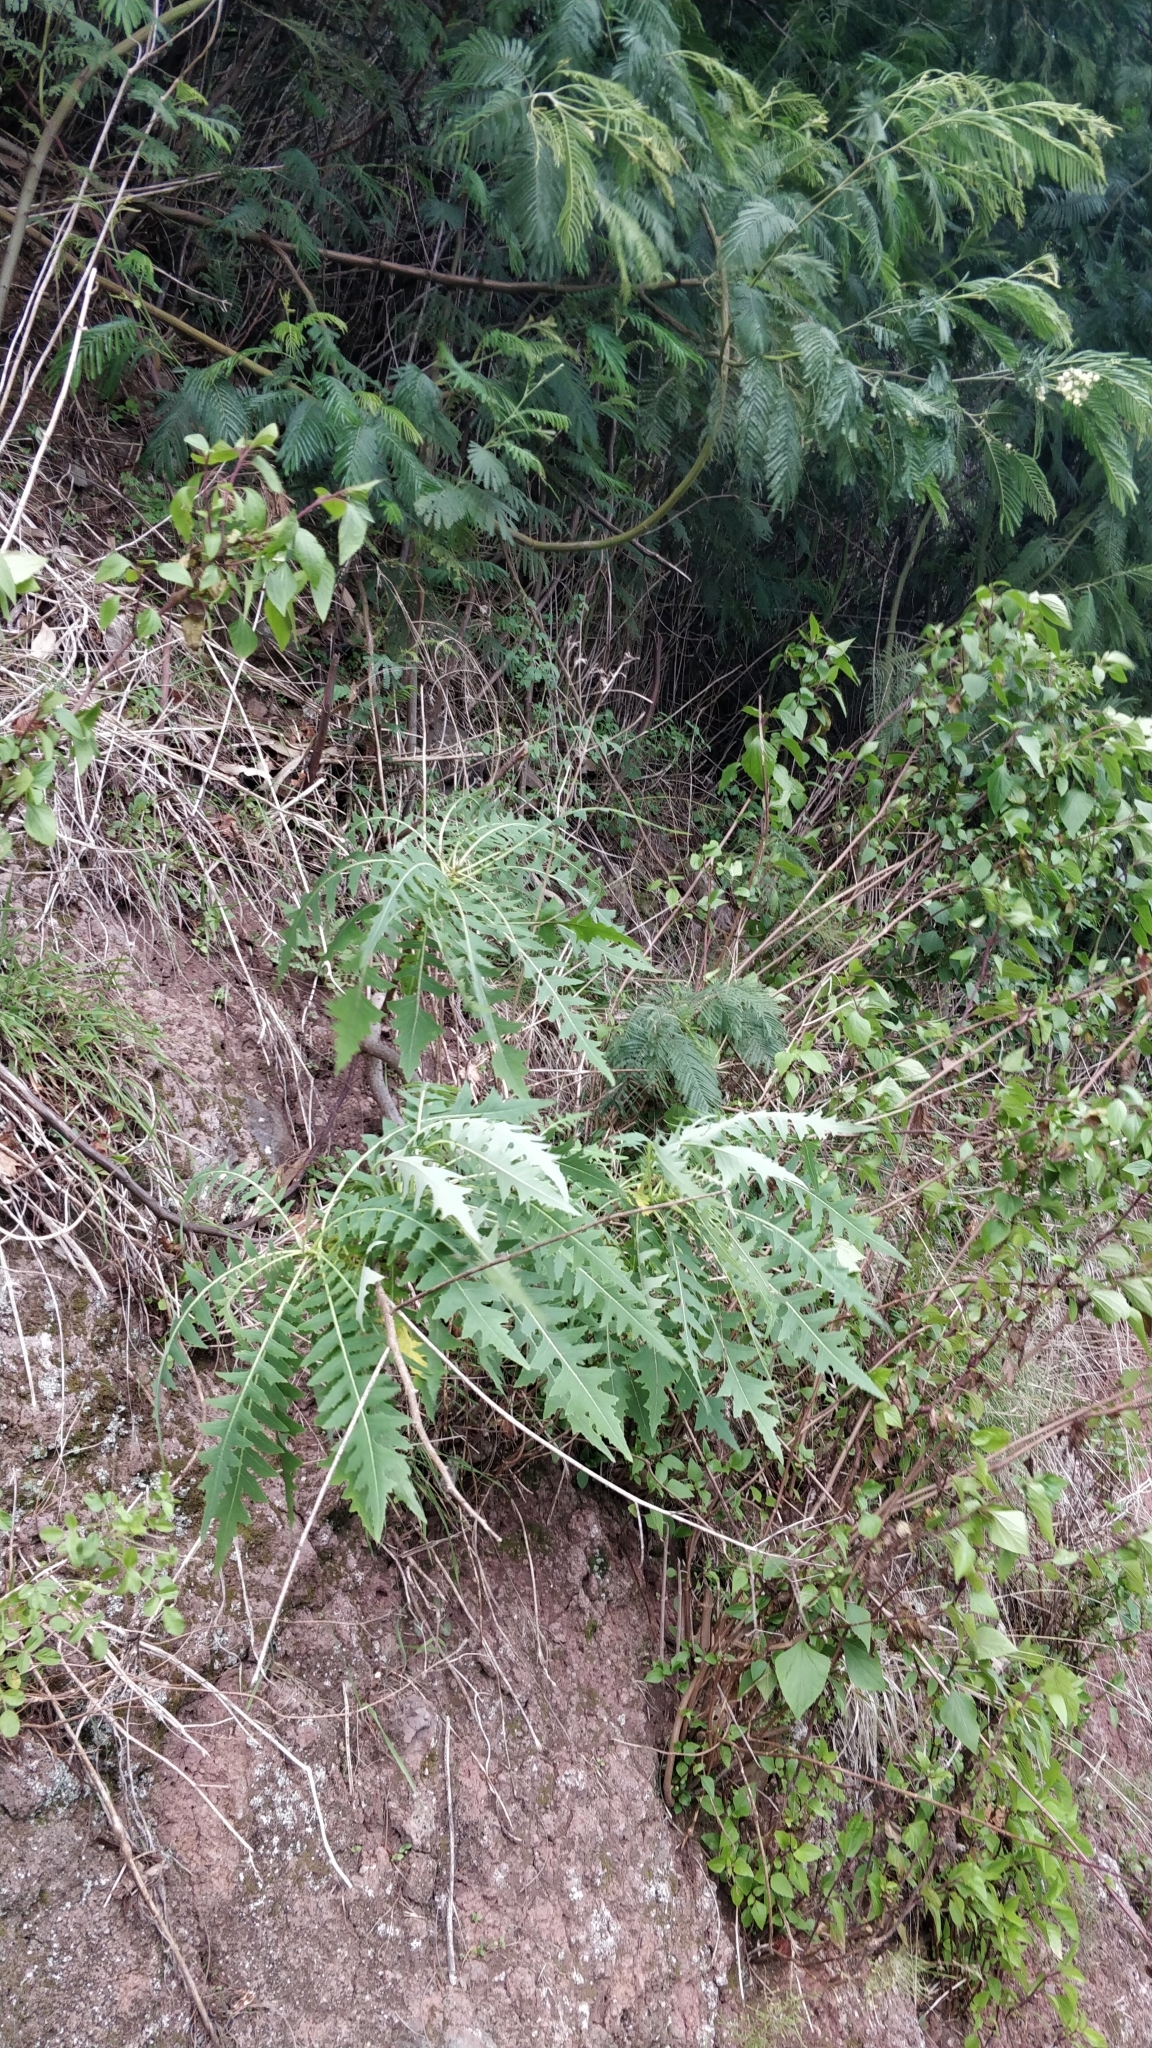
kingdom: Plantae
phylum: Tracheophyta
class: Magnoliopsida
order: Asterales
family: Asteraceae
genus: Sonchus
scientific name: Sonchus pinnatus
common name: Wing-leaved sow-thistle
